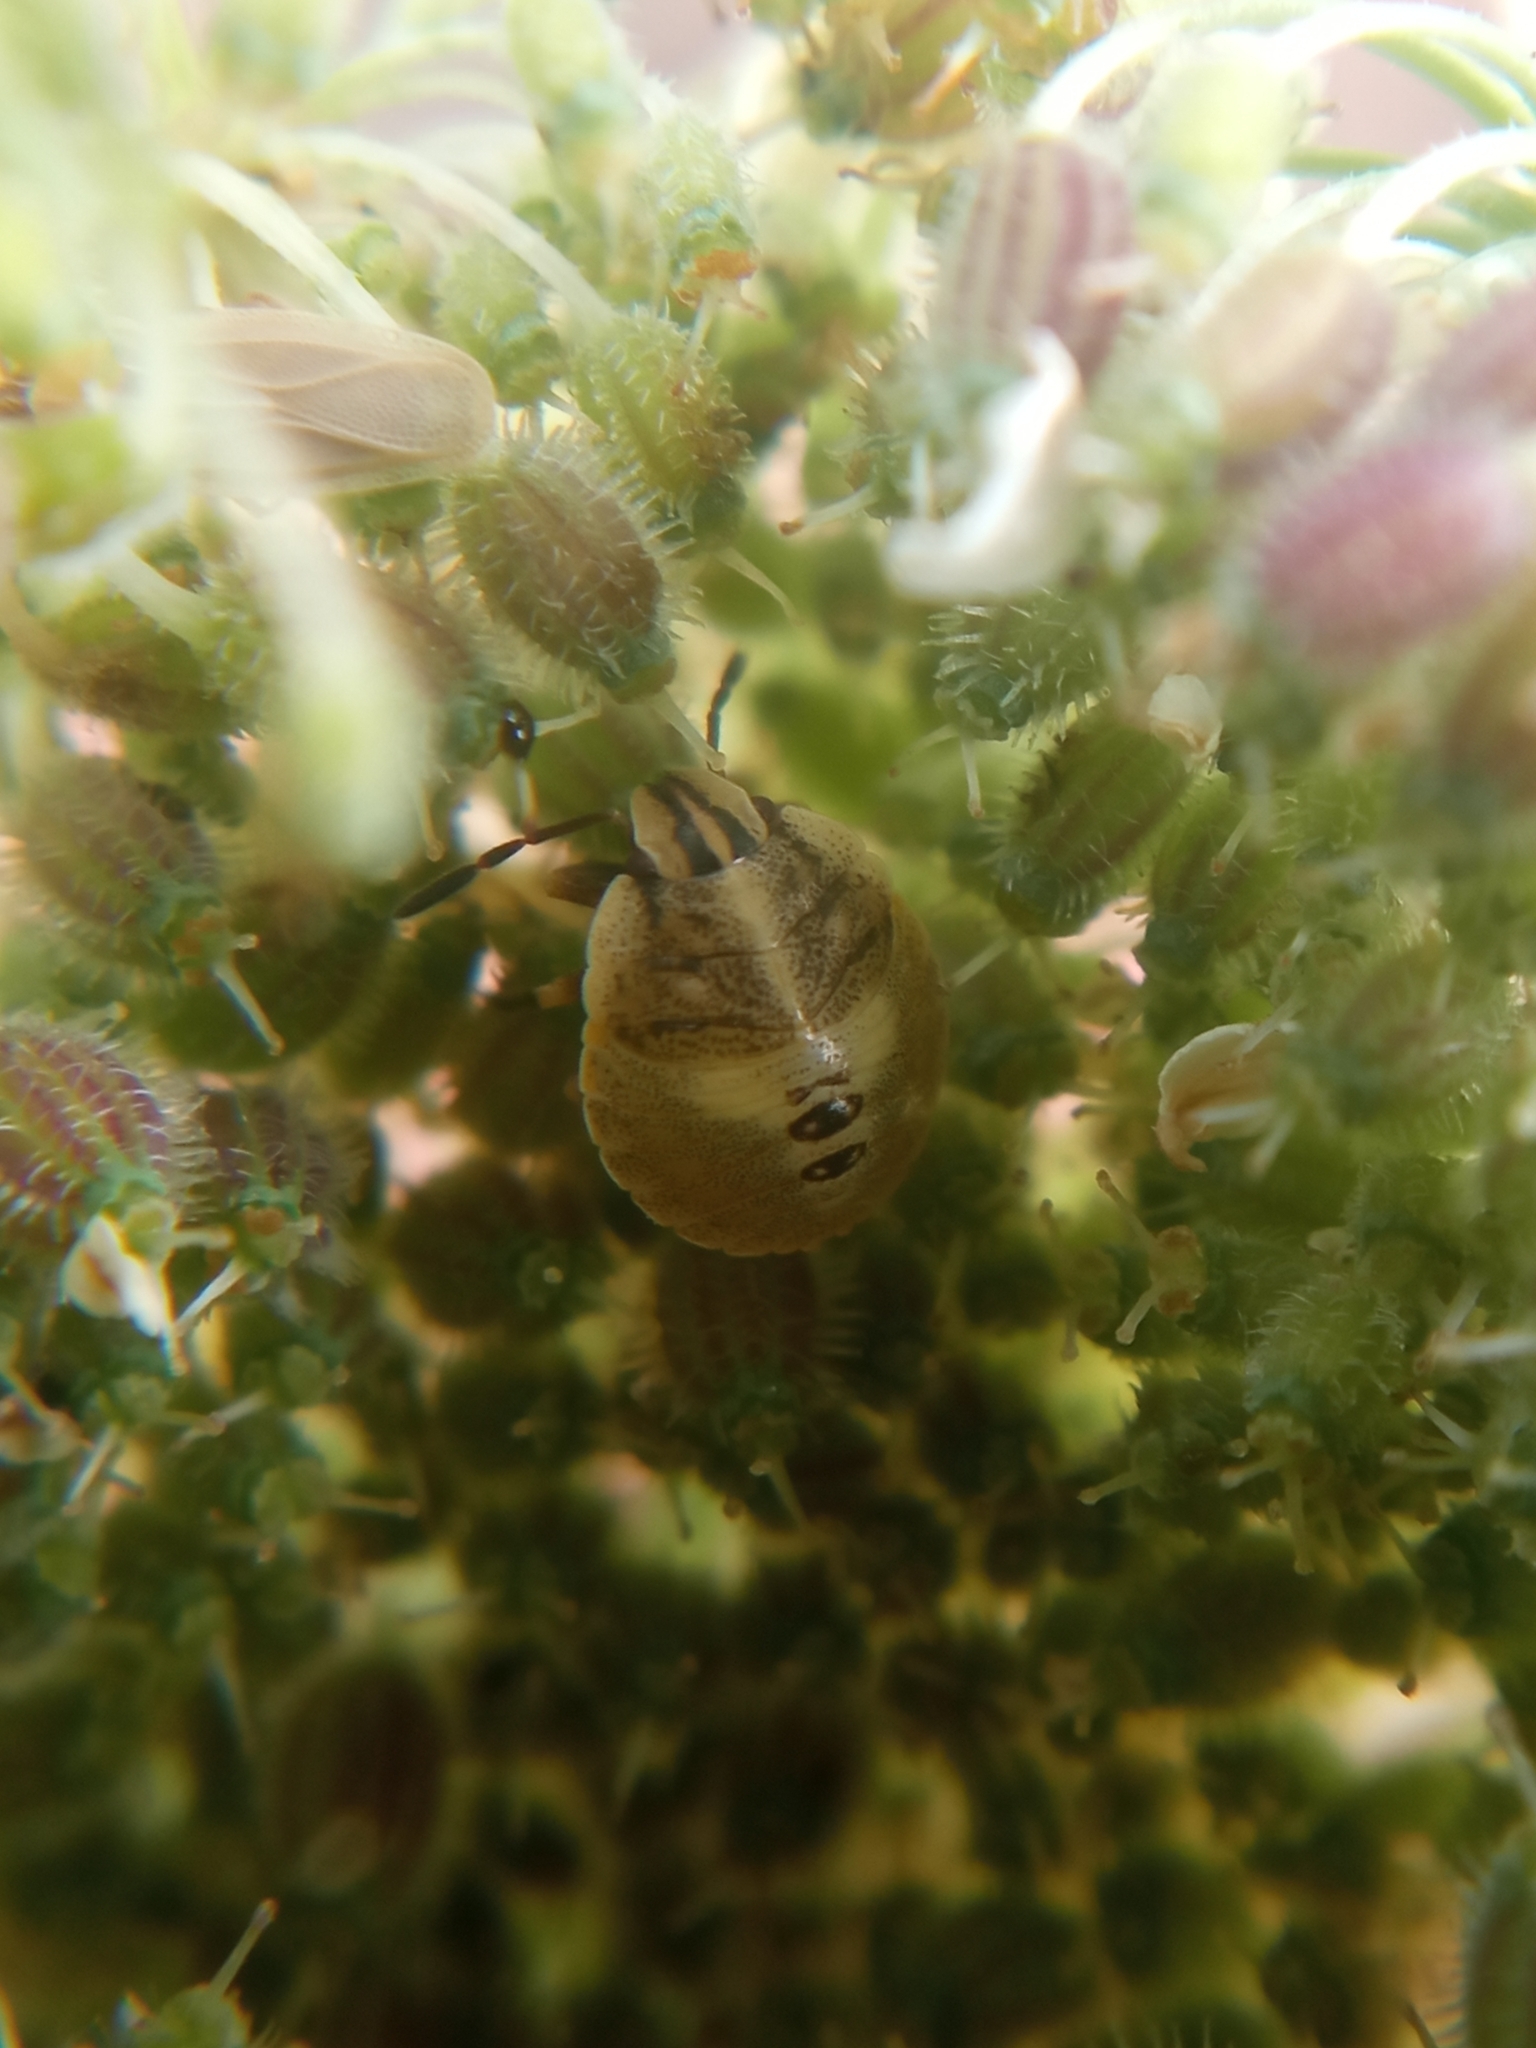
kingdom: Animalia
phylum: Arthropoda
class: Insecta
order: Hemiptera
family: Pentatomidae
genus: Graphosoma
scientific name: Graphosoma italicum
